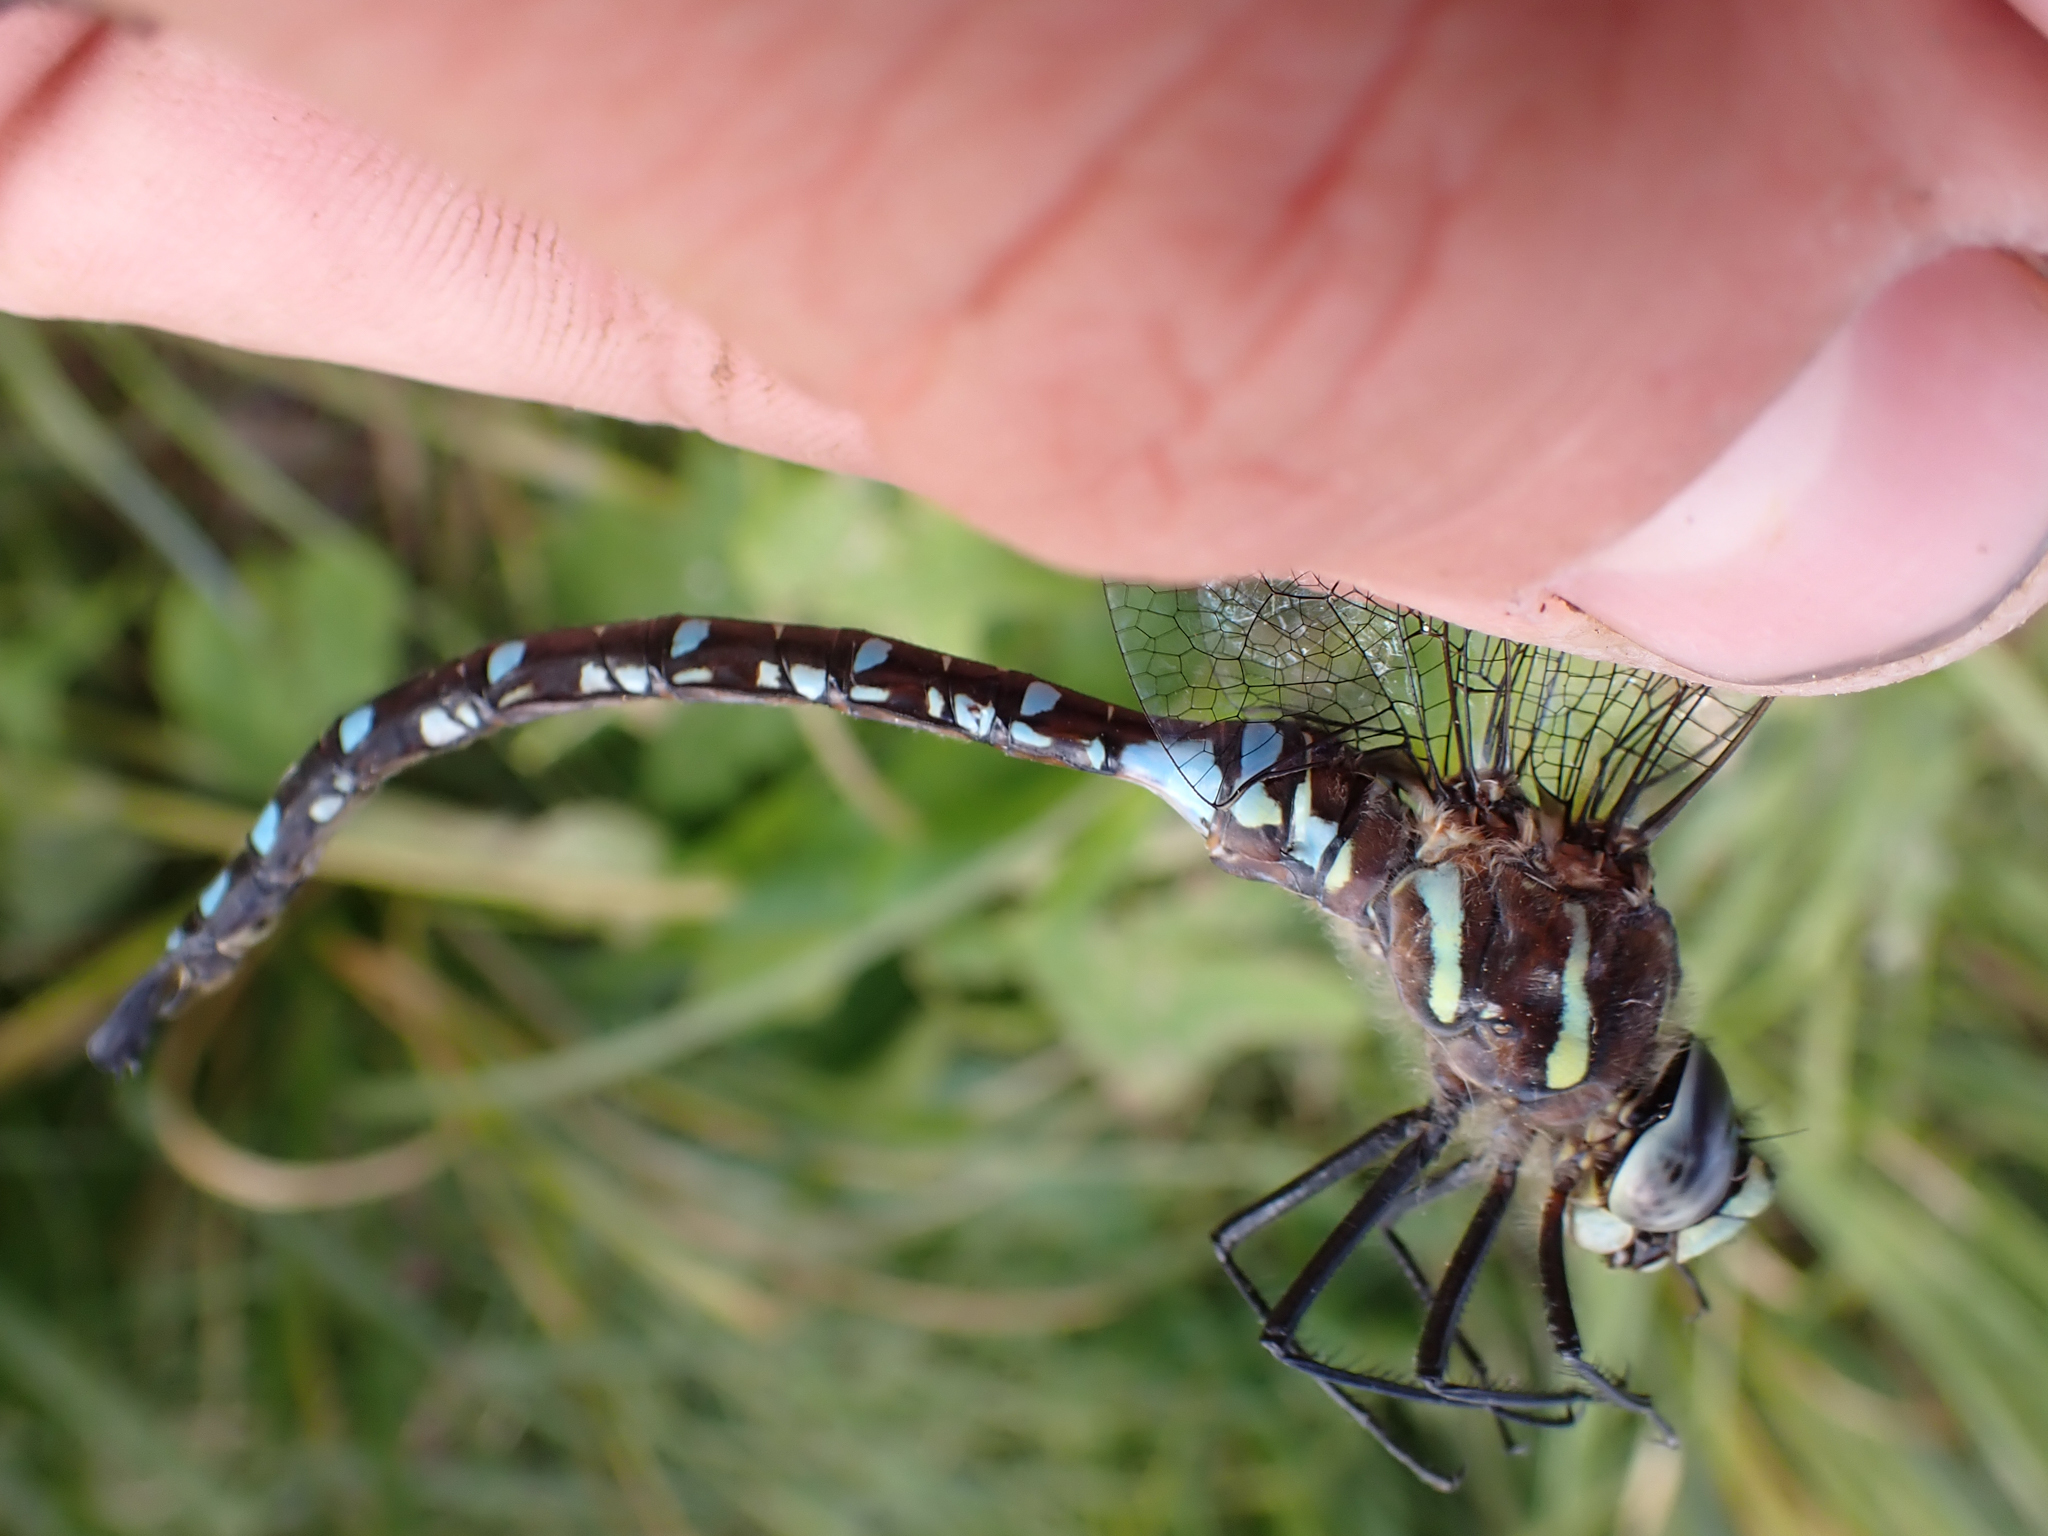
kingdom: Animalia
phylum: Arthropoda
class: Insecta
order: Odonata
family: Aeshnidae
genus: Aeshna
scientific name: Aeshna palmata
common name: Paddle-tailed darner
